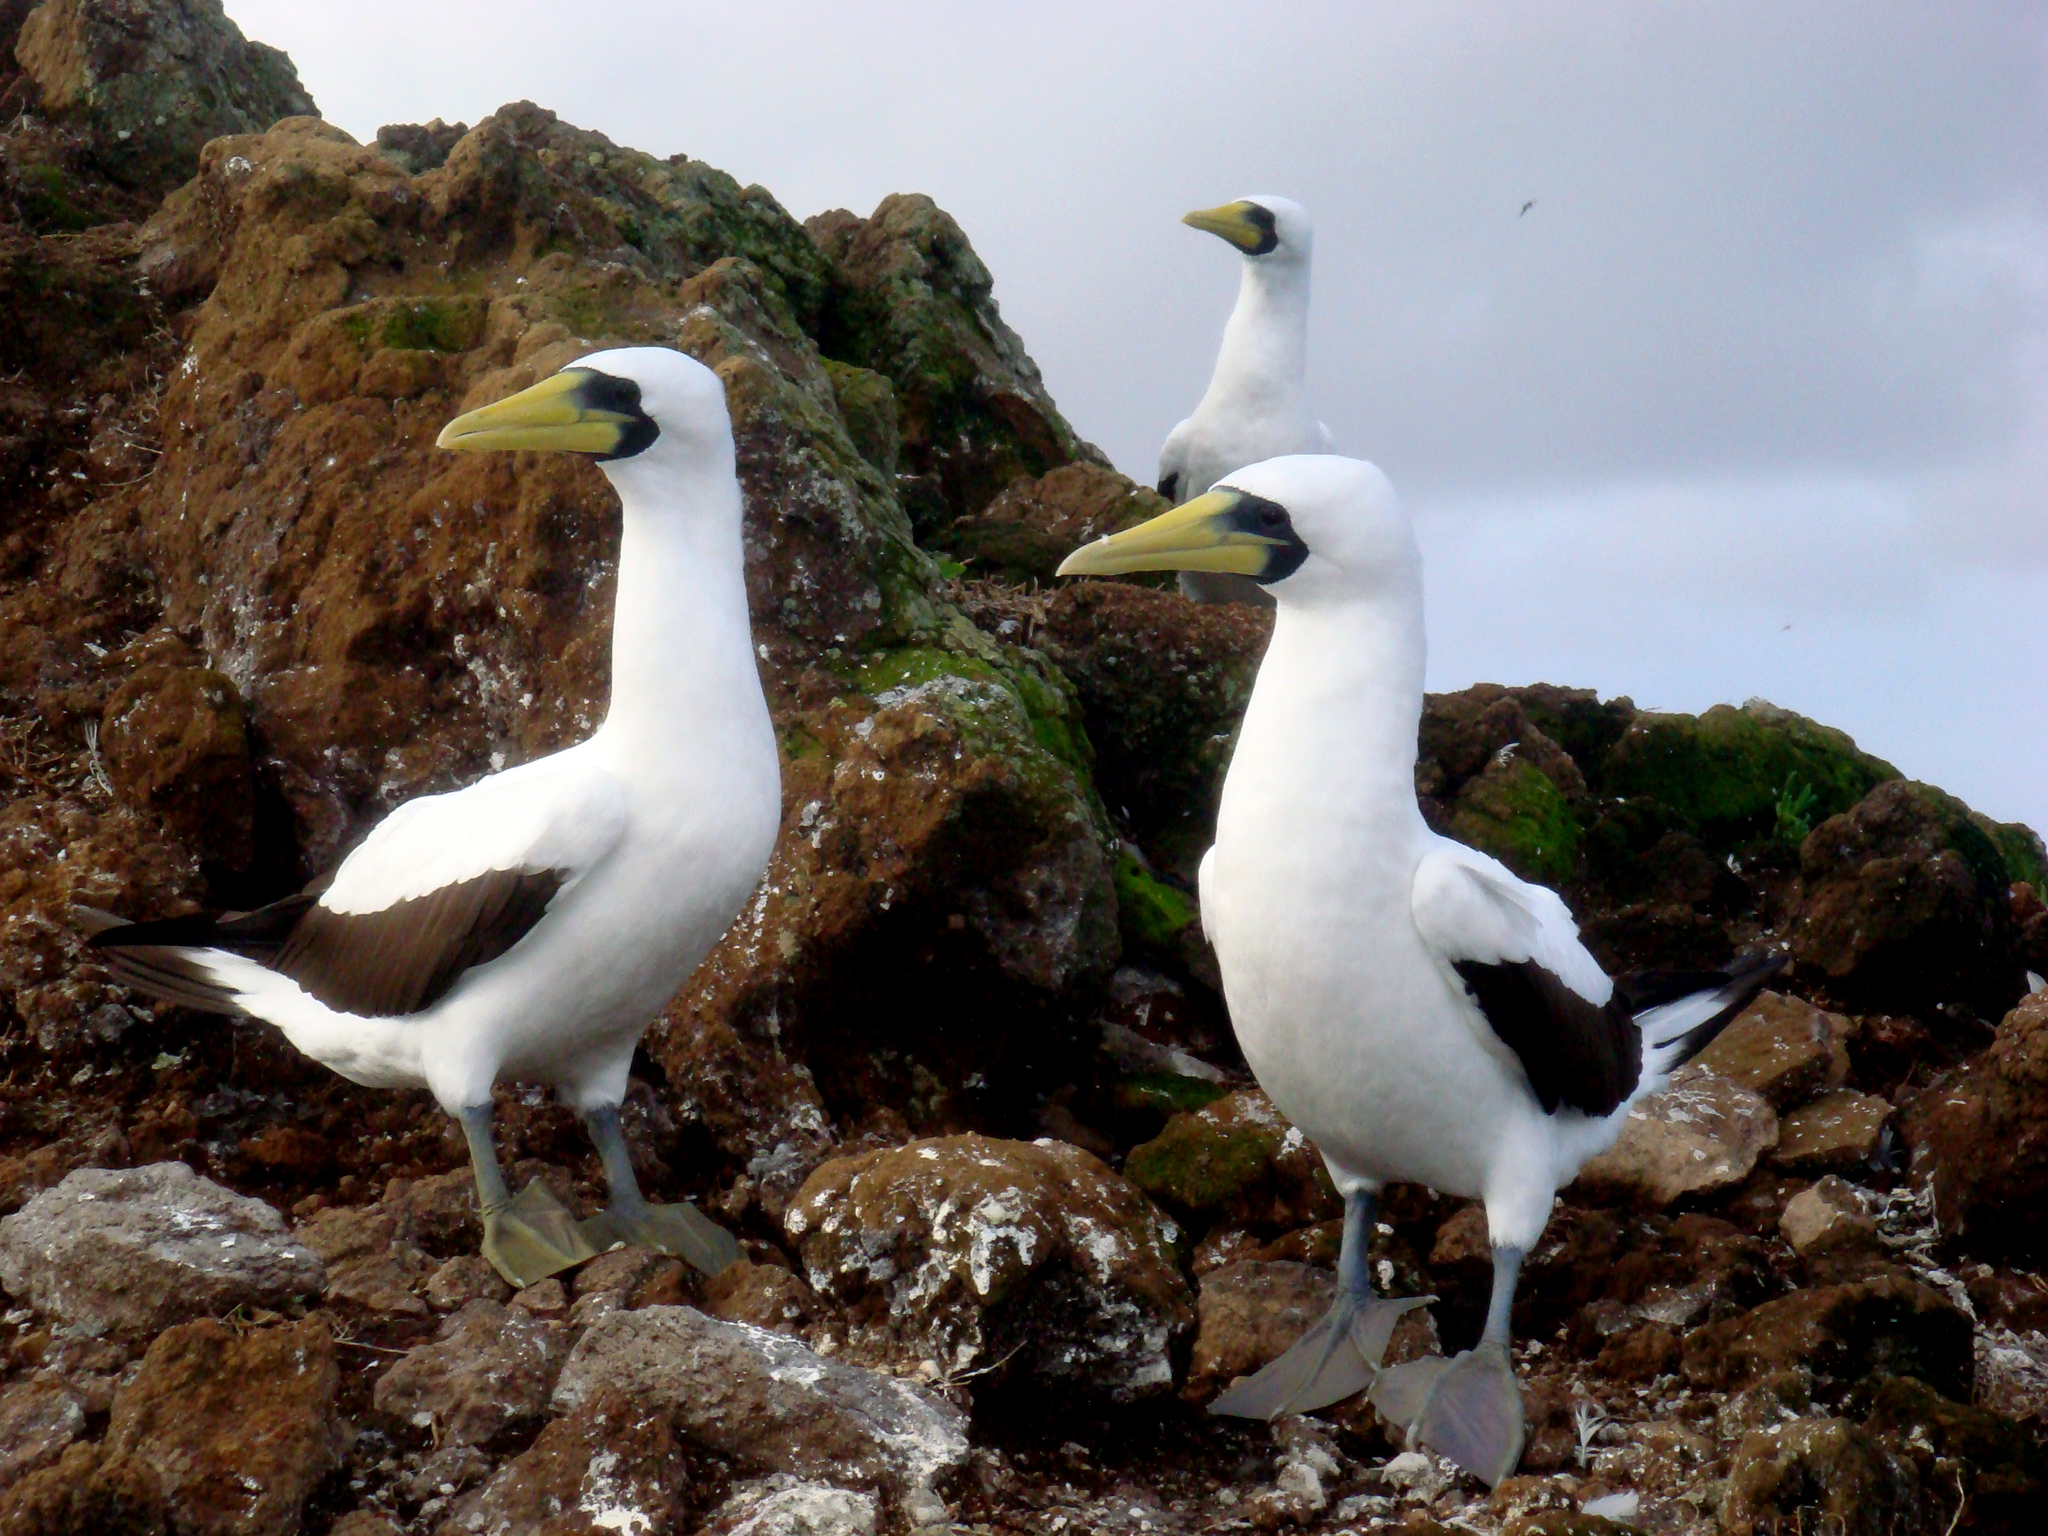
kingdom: Animalia
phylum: Chordata
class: Aves
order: Suliformes
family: Sulidae
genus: Sula
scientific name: Sula dactylatra
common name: Masked booby
